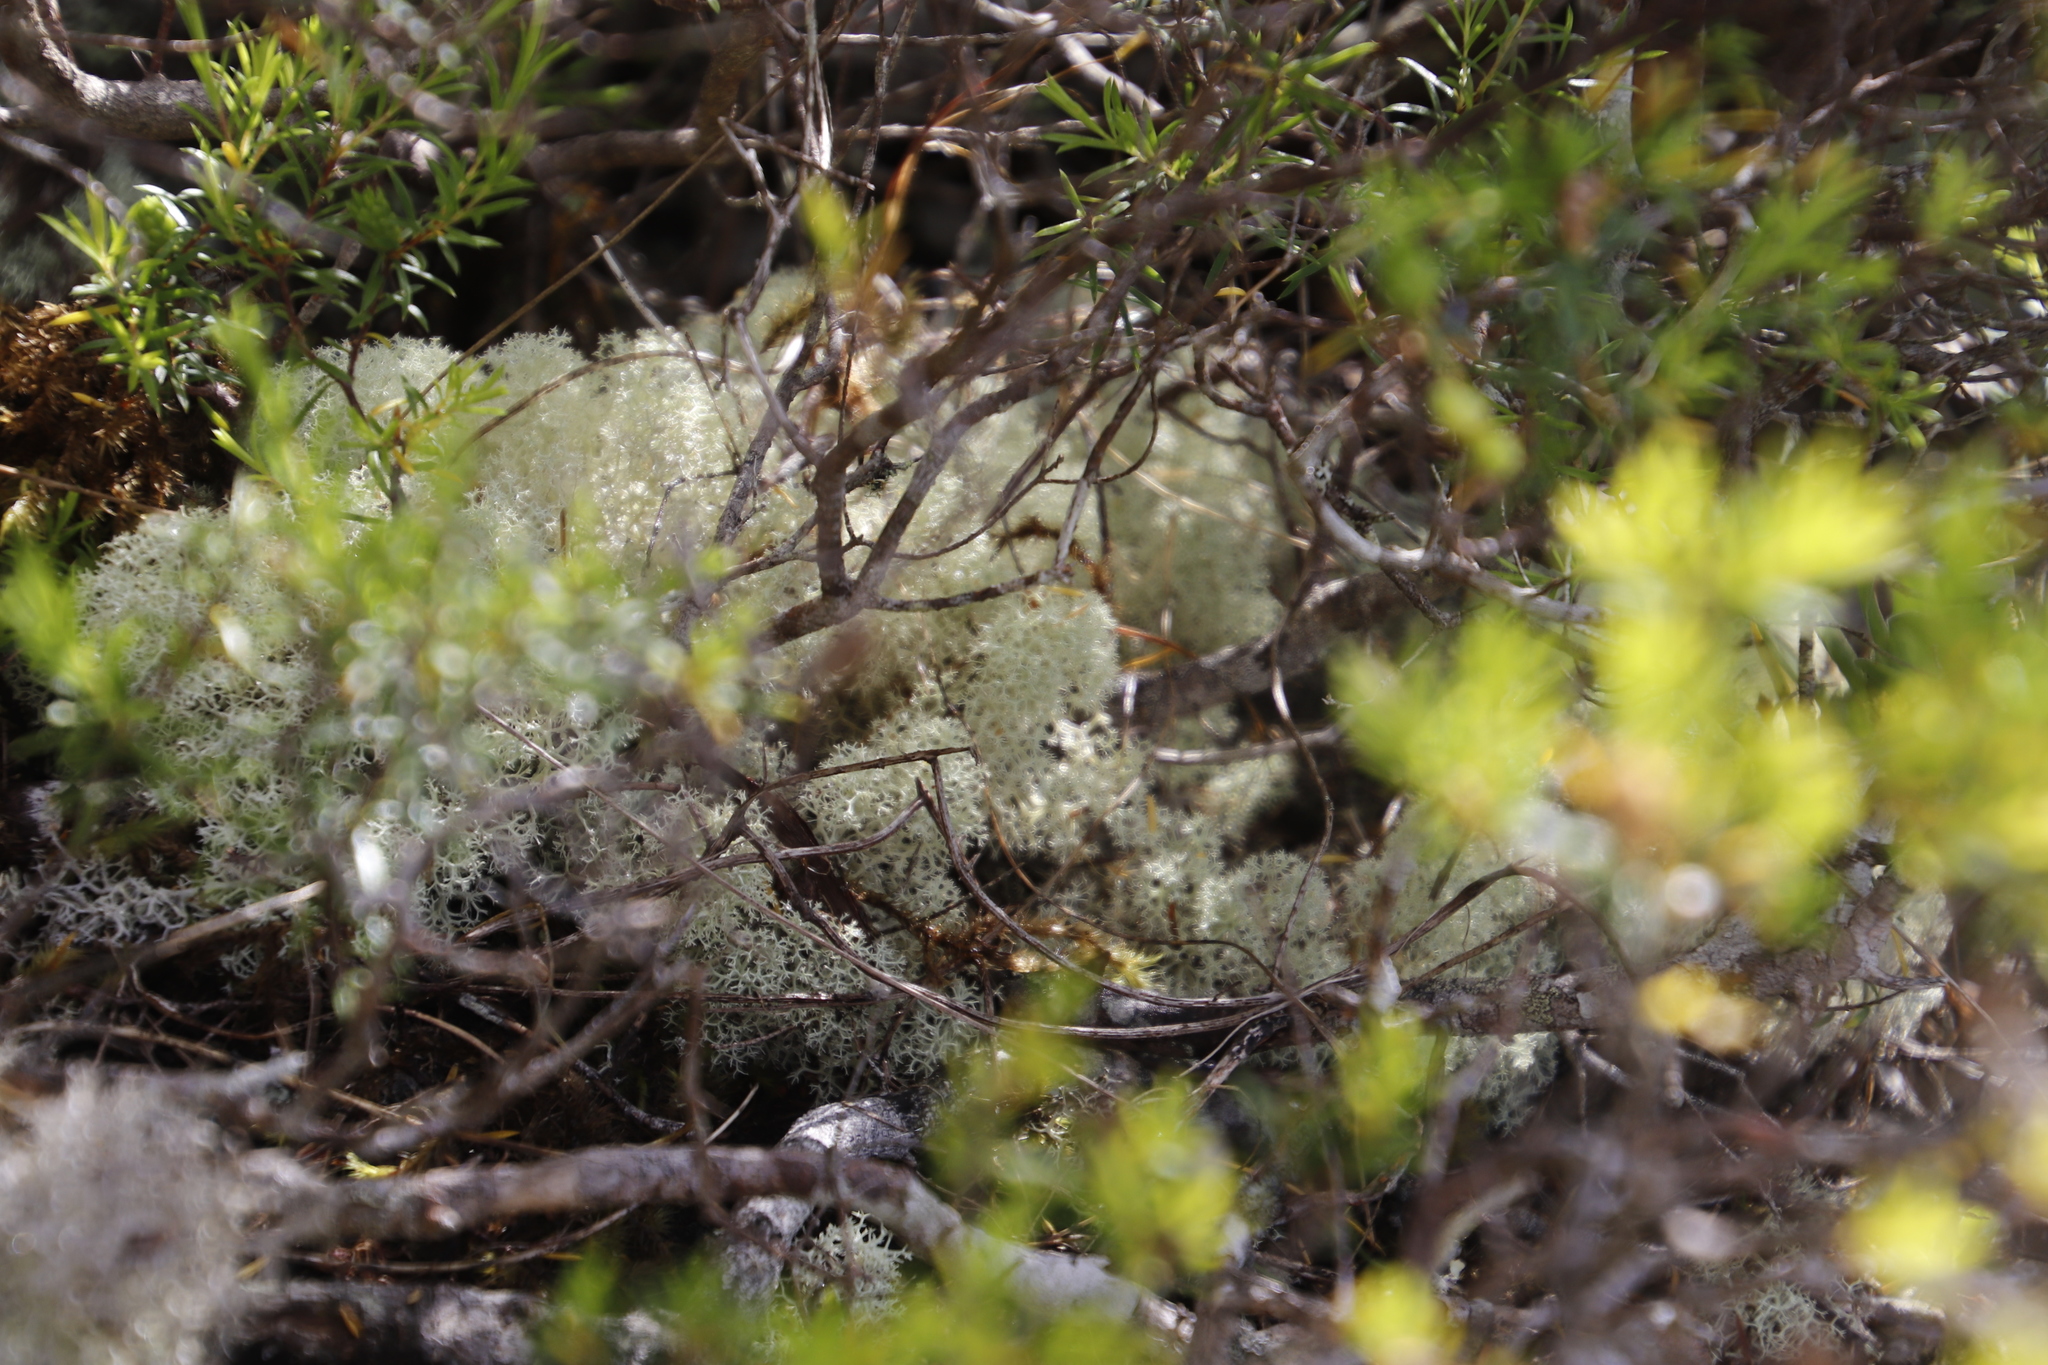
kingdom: Fungi
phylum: Ascomycota
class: Lecanoromycetes
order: Lecanorales
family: Cladoniaceae
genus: Cladonia
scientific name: Cladonia confusa
